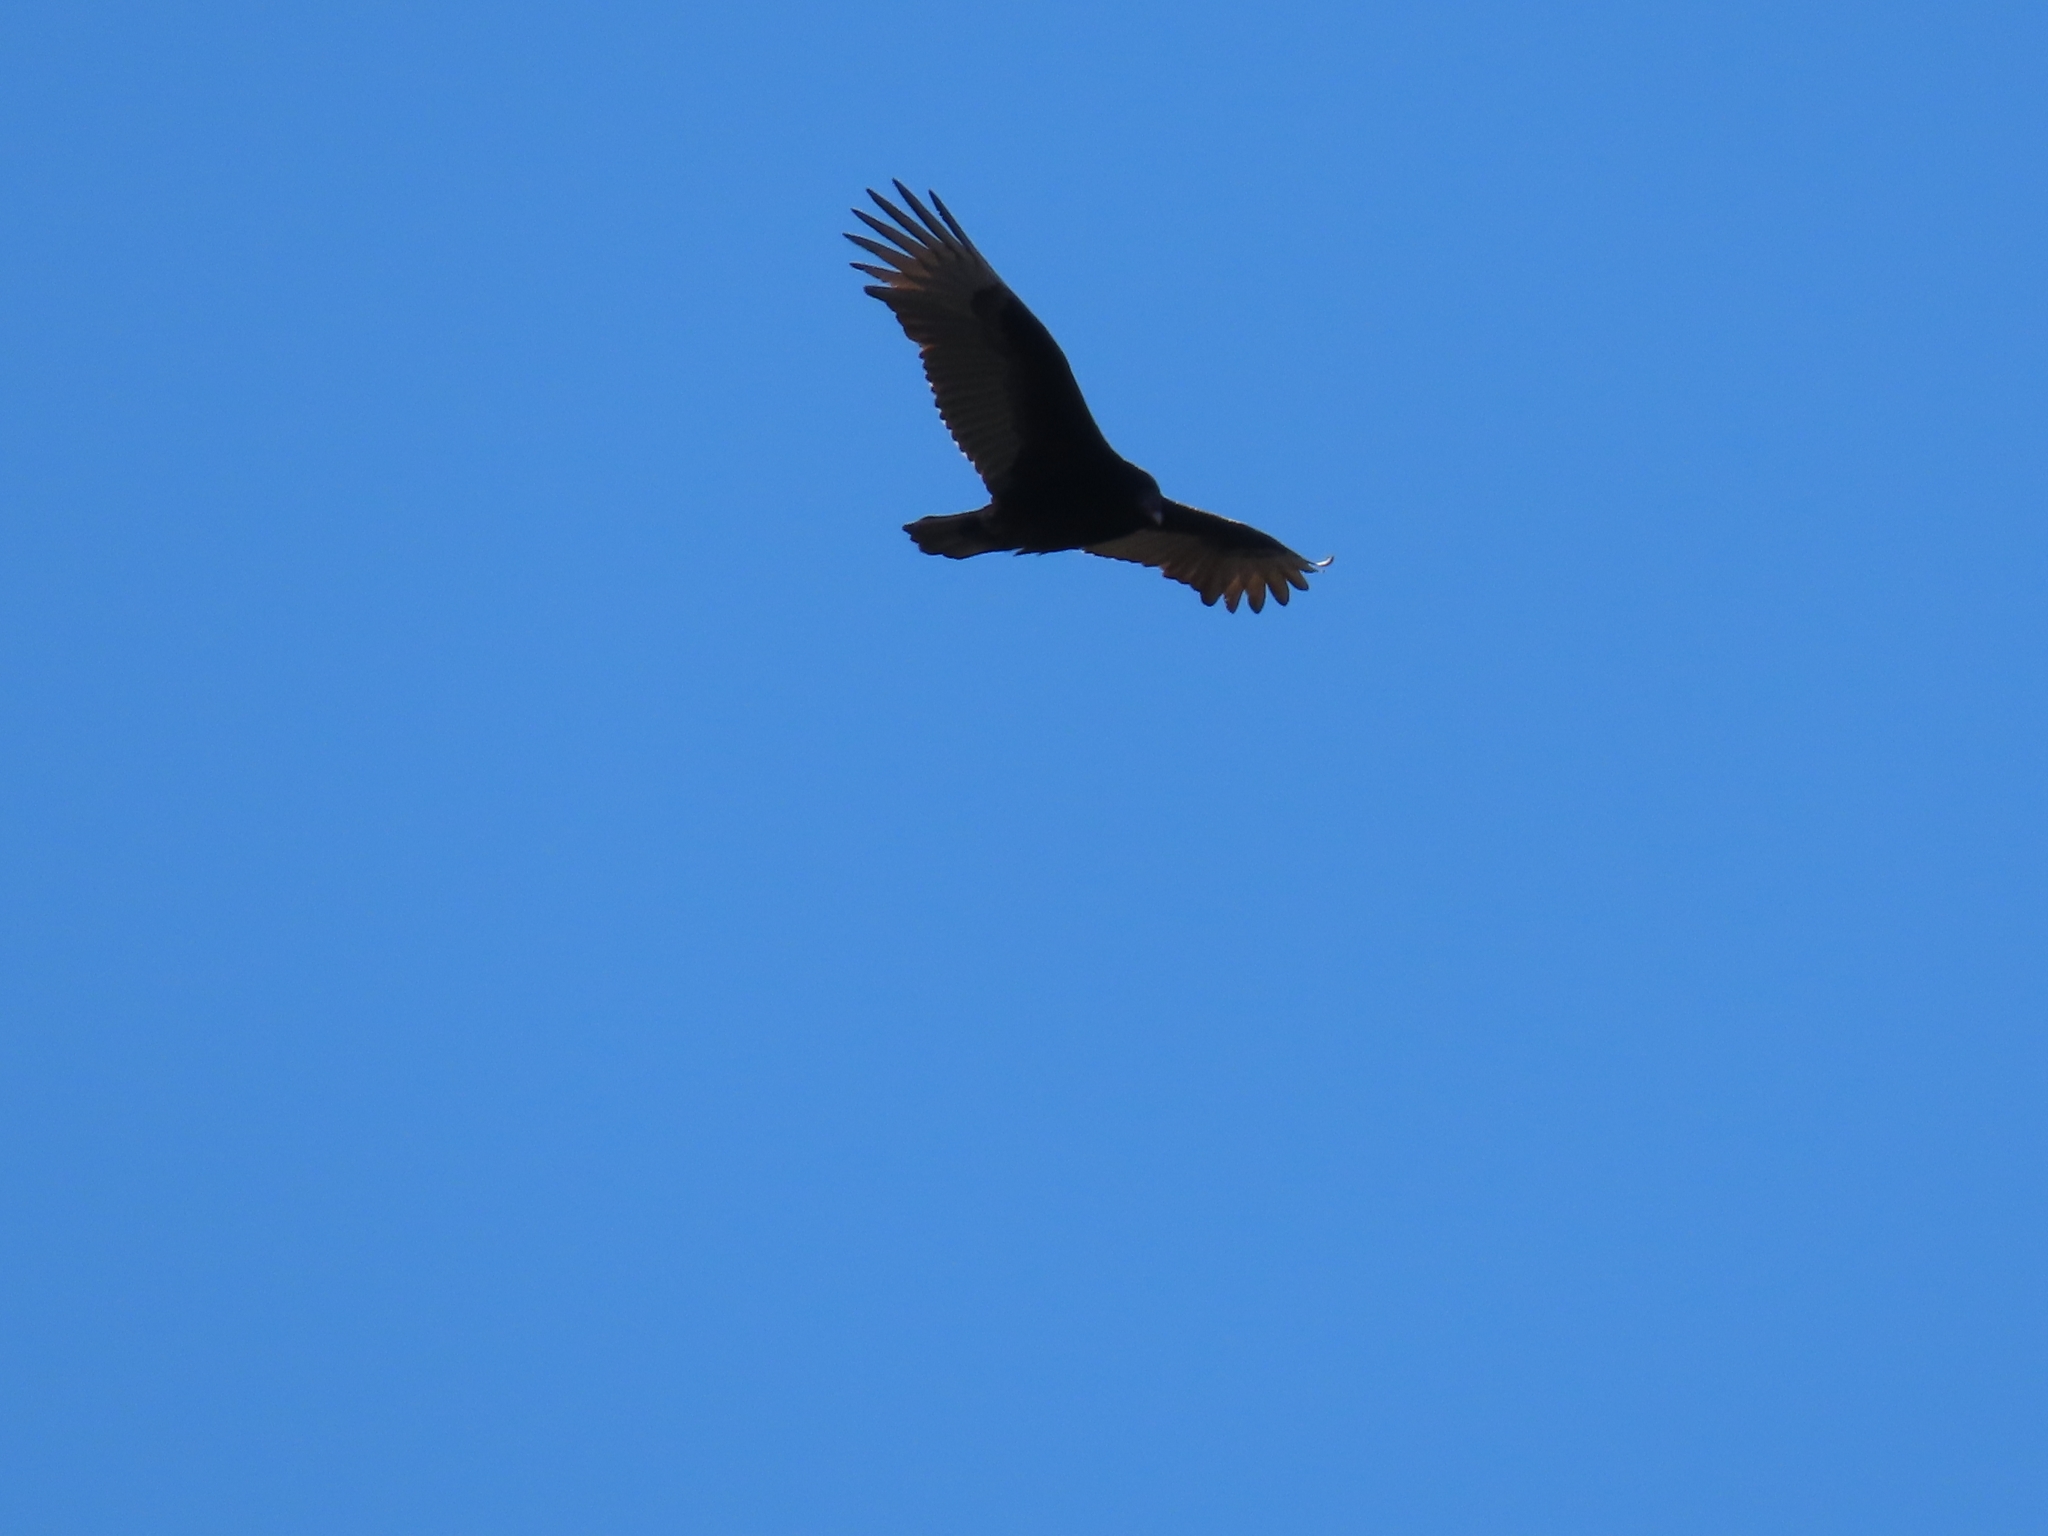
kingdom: Animalia
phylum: Chordata
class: Aves
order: Accipitriformes
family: Cathartidae
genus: Cathartes
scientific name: Cathartes aura
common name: Turkey vulture
